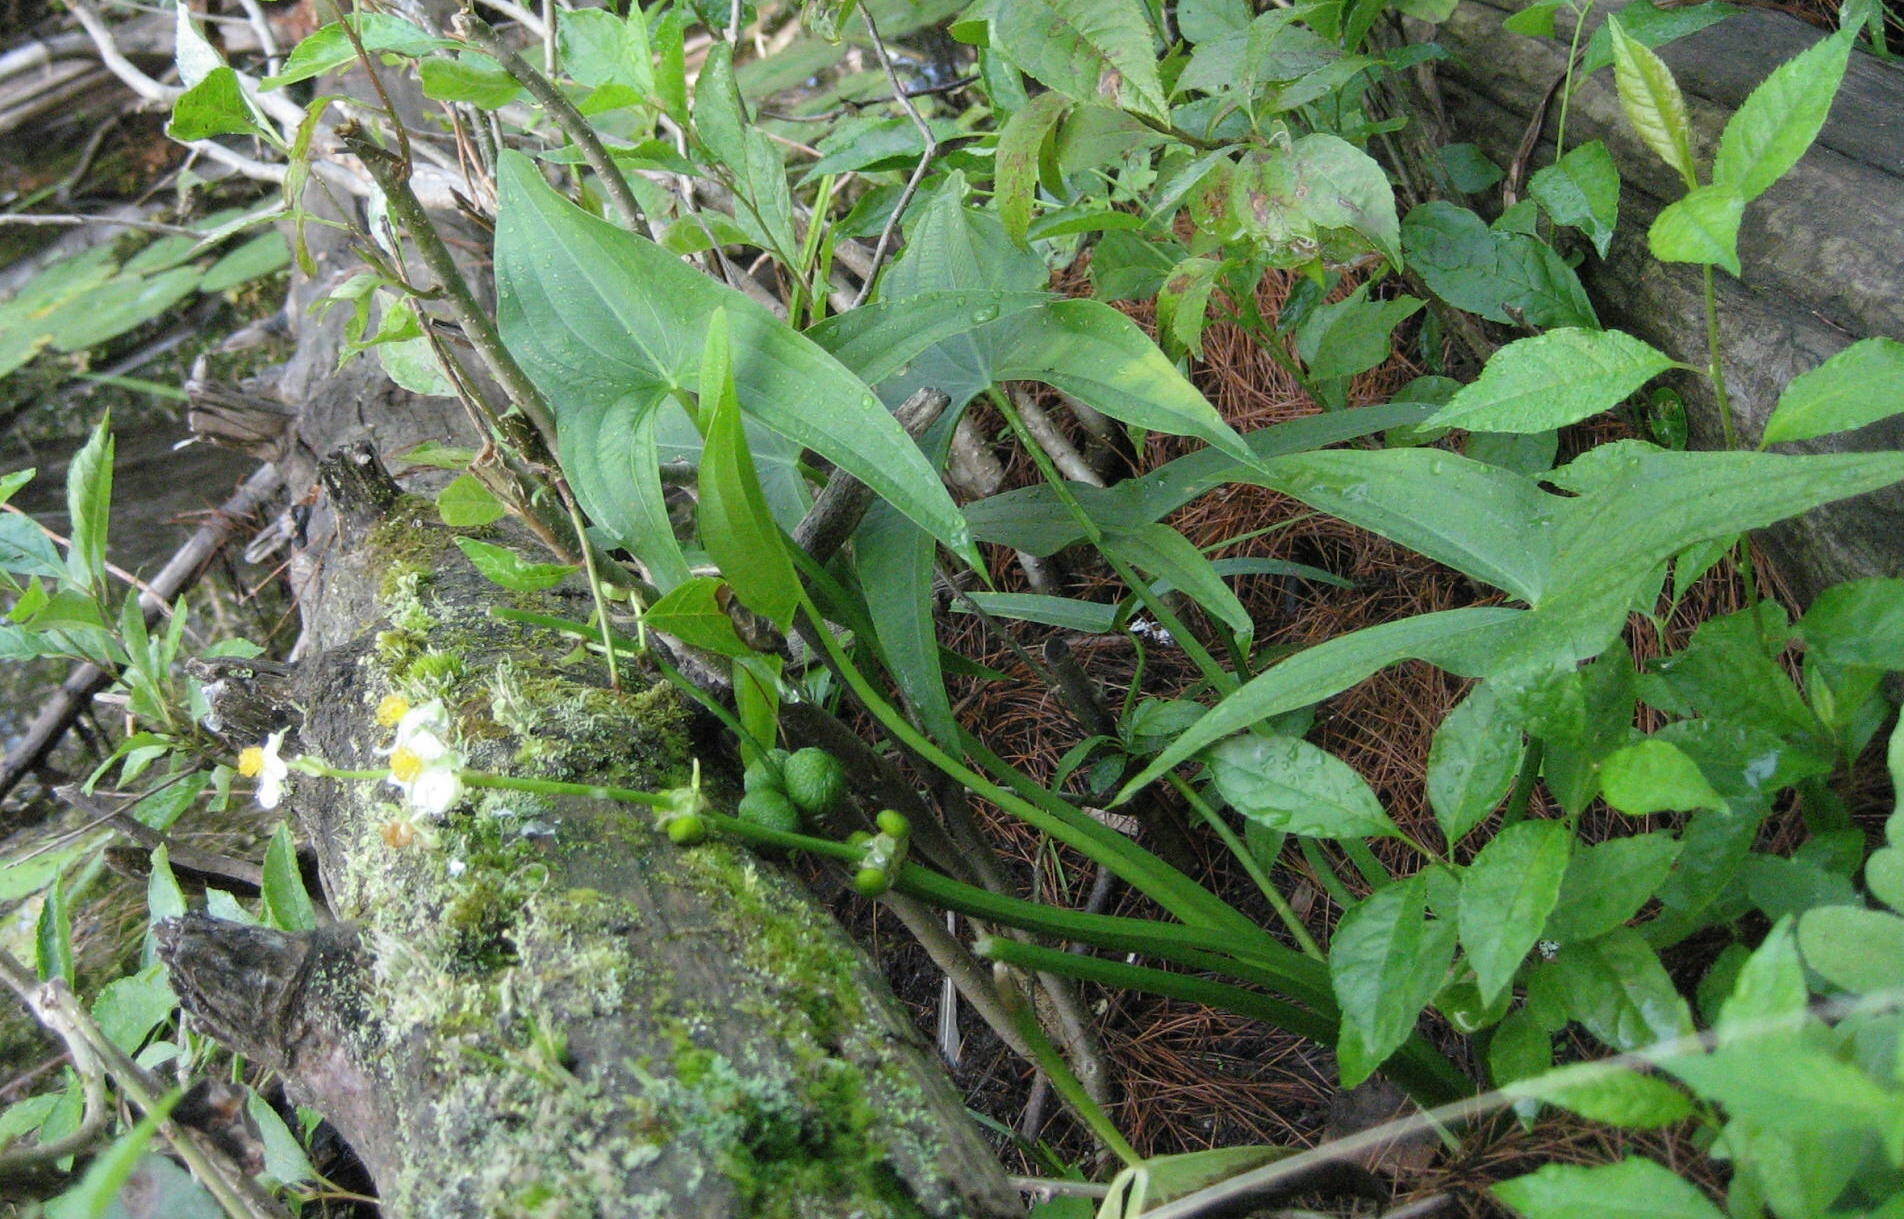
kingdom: Plantae
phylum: Tracheophyta
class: Liliopsida
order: Alismatales
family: Alismataceae
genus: Sagittaria
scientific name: Sagittaria latifolia
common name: Duck-potato
